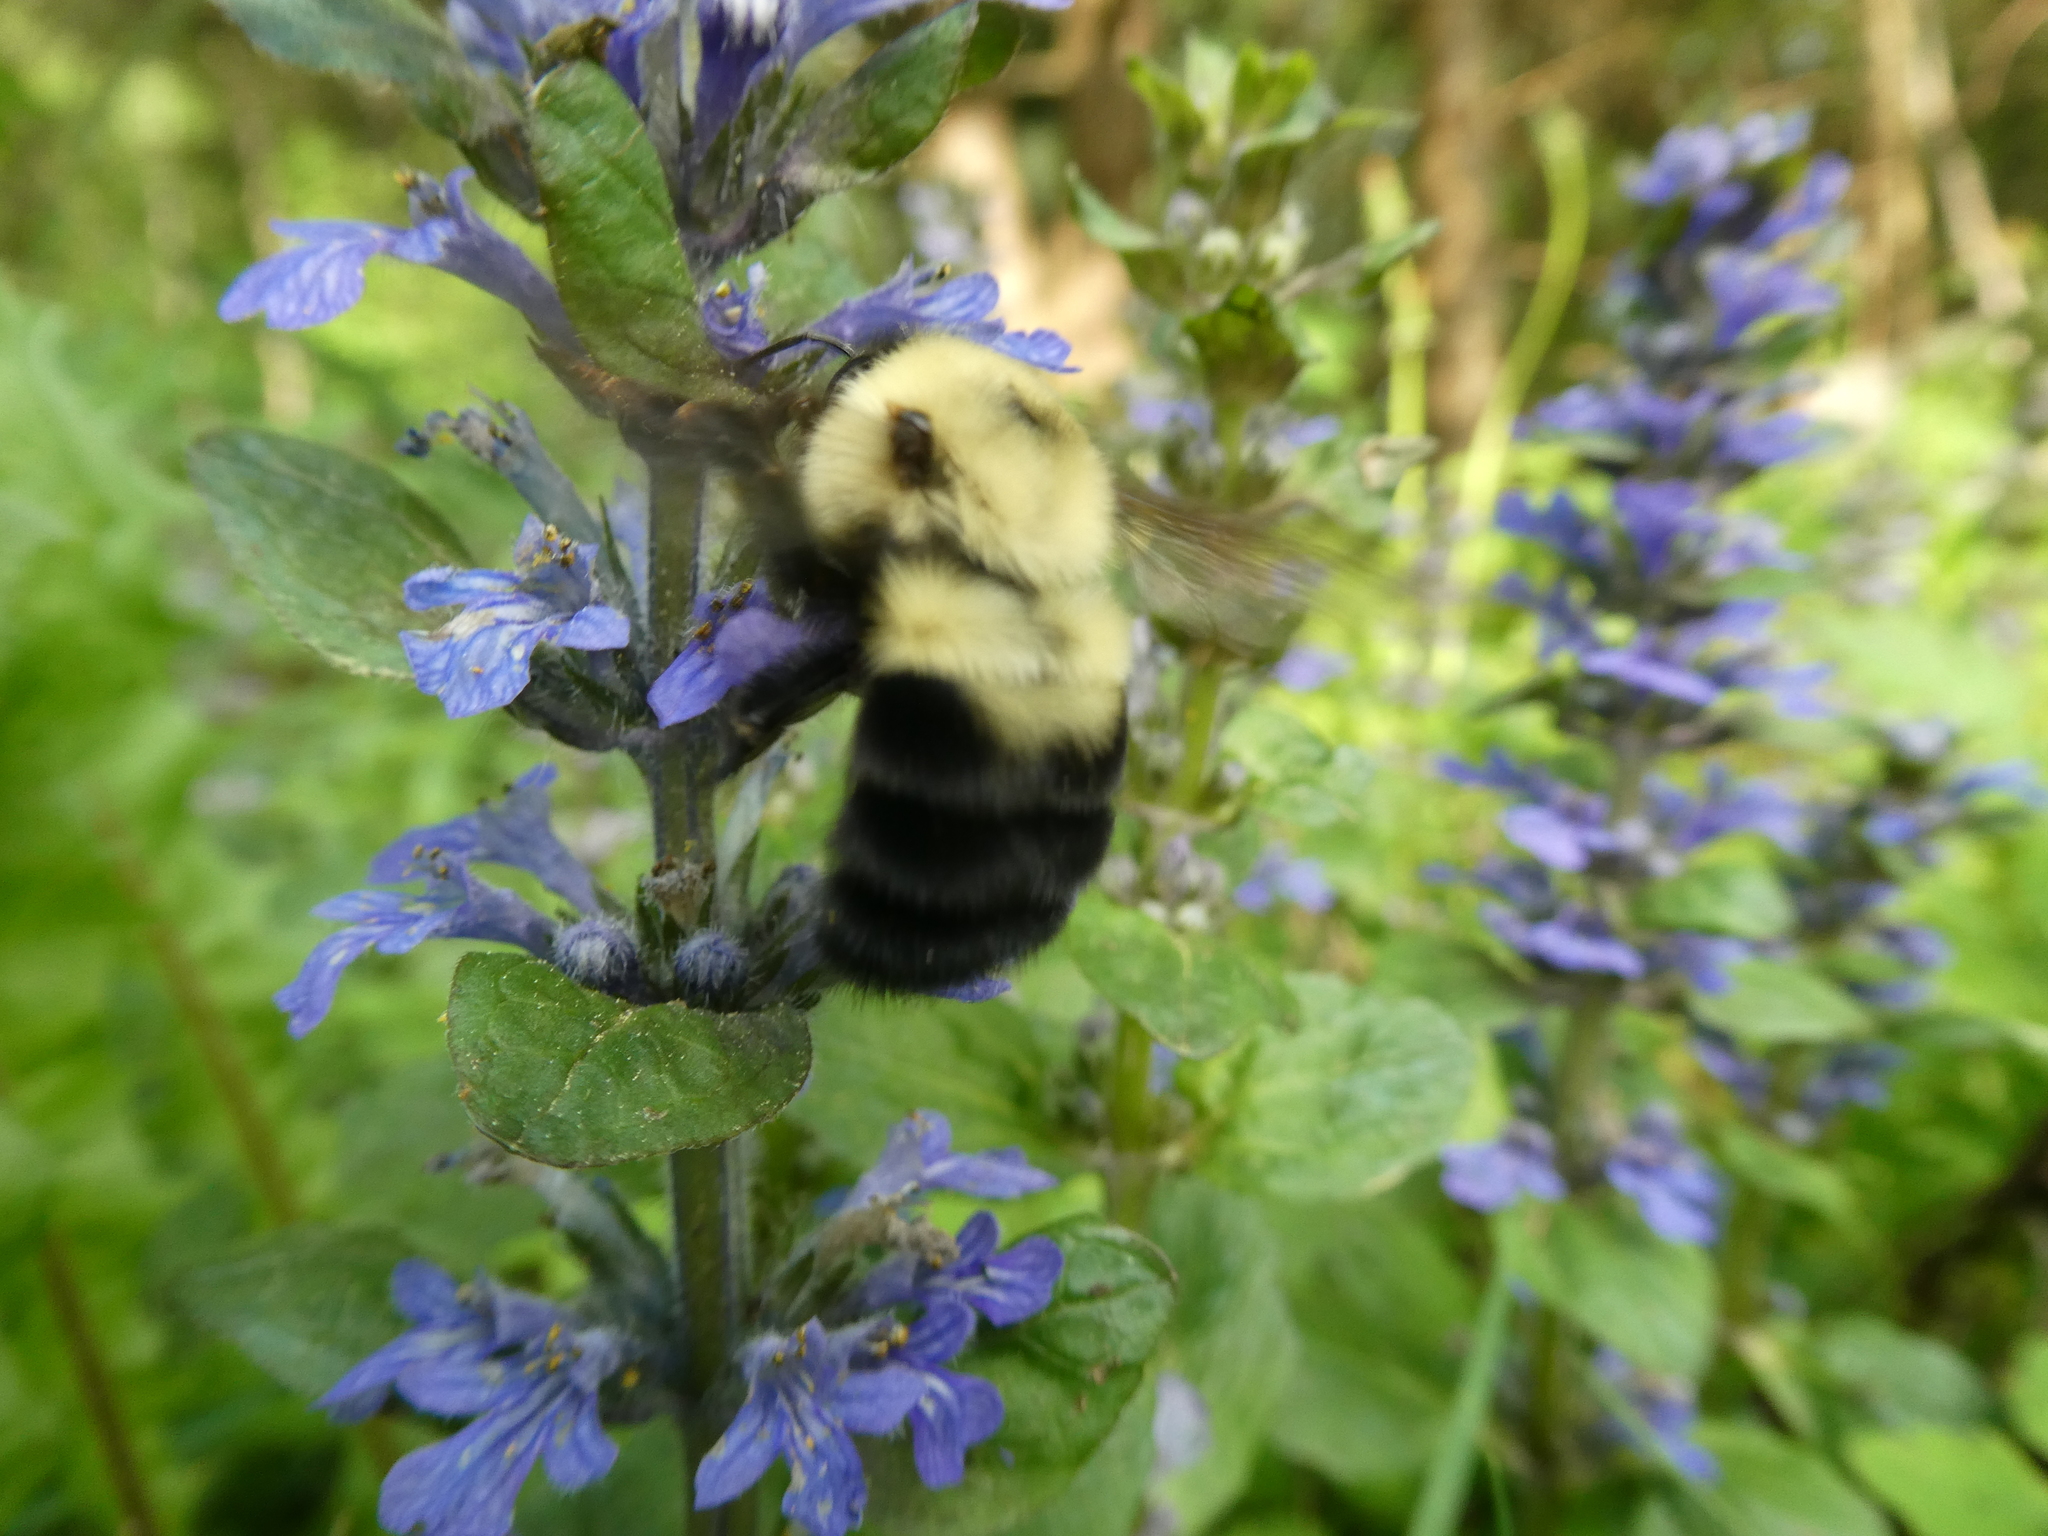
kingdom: Animalia
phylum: Arthropoda
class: Insecta
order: Hymenoptera
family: Apidae
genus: Bombus
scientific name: Bombus bimaculatus
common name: Two-spotted bumble bee
